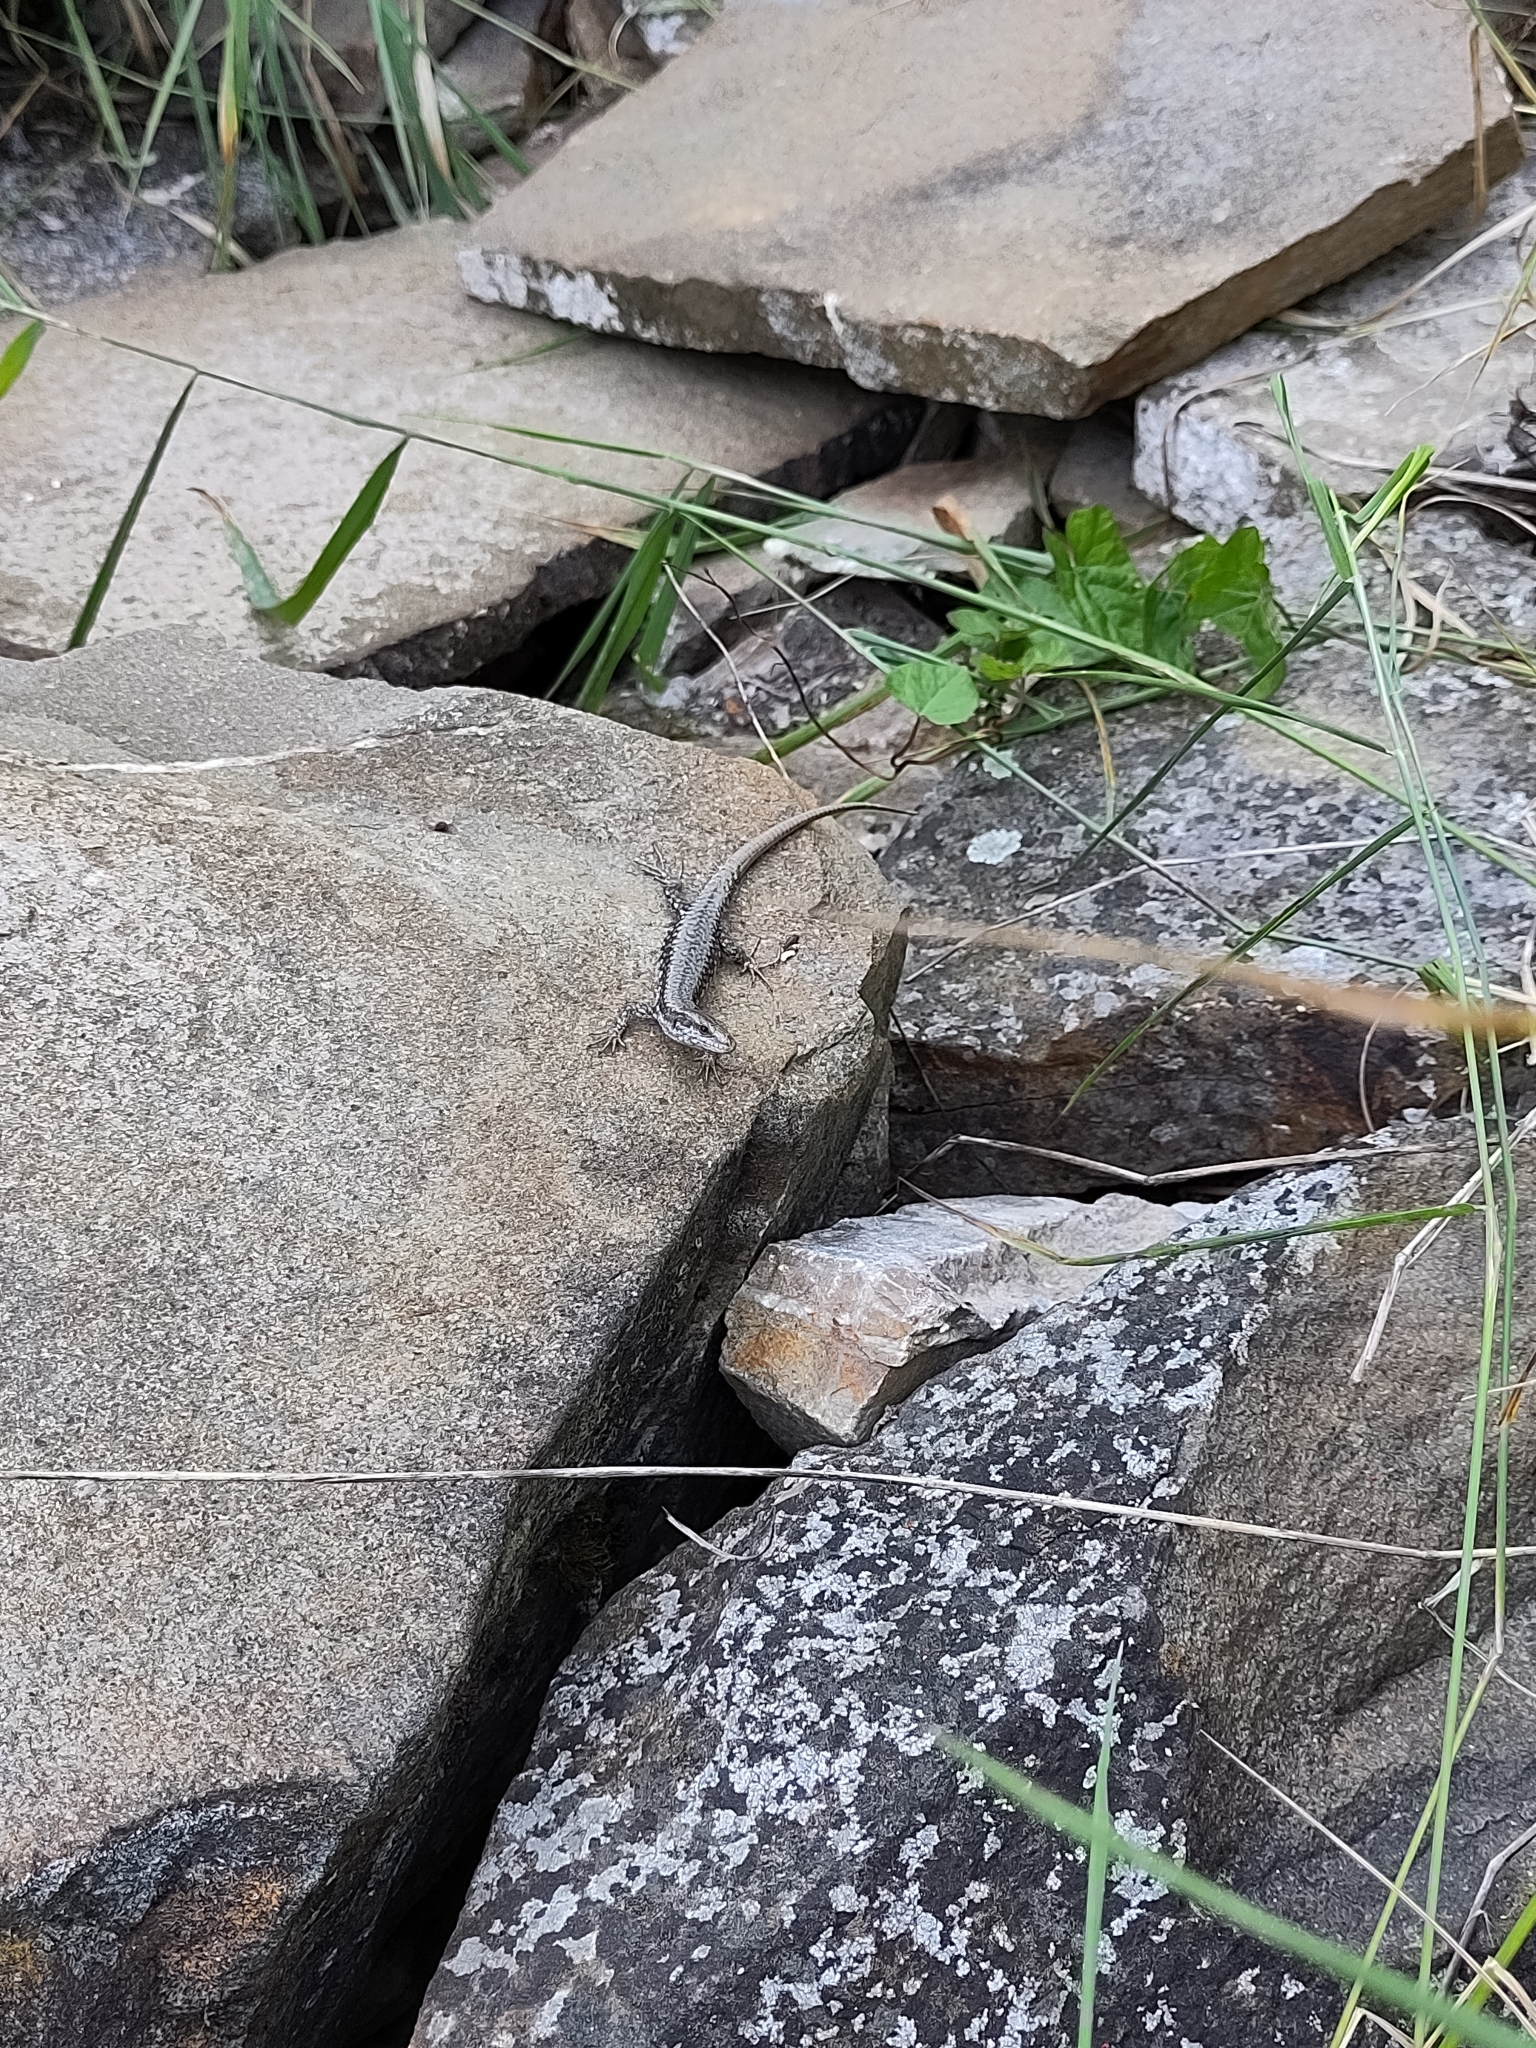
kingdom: Animalia
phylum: Chordata
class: Squamata
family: Lacertidae
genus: Podarcis
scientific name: Podarcis muralis
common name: Common wall lizard
